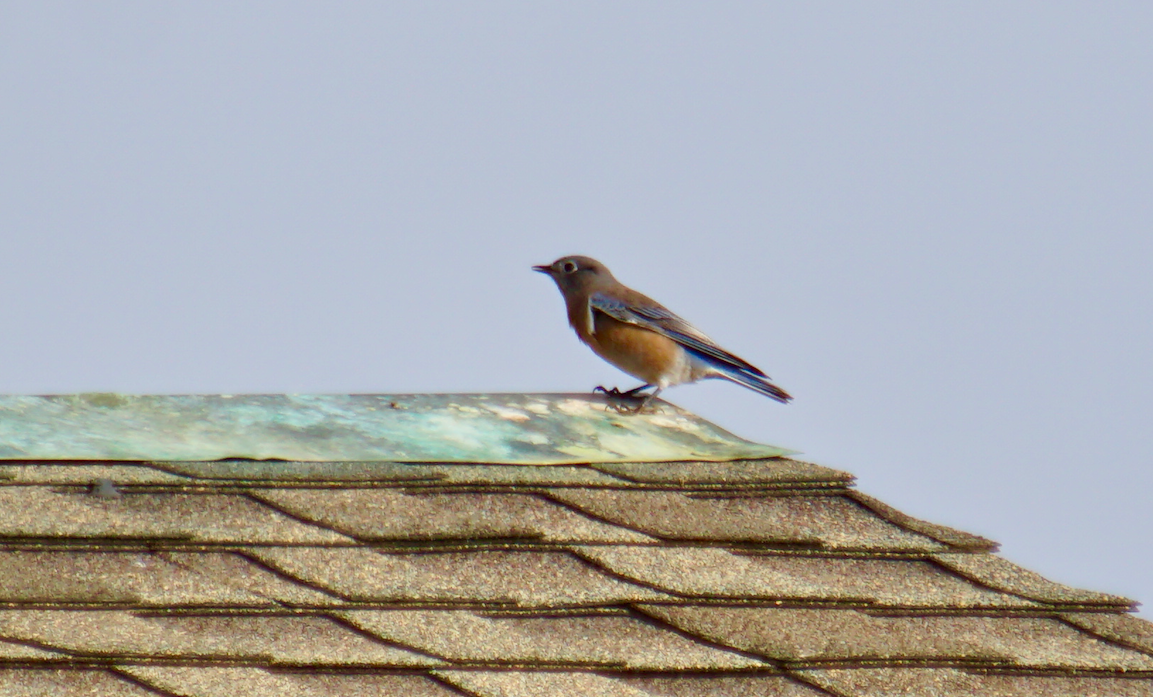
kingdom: Animalia
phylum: Chordata
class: Aves
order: Passeriformes
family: Turdidae
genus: Sialia
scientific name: Sialia mexicana
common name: Western bluebird
